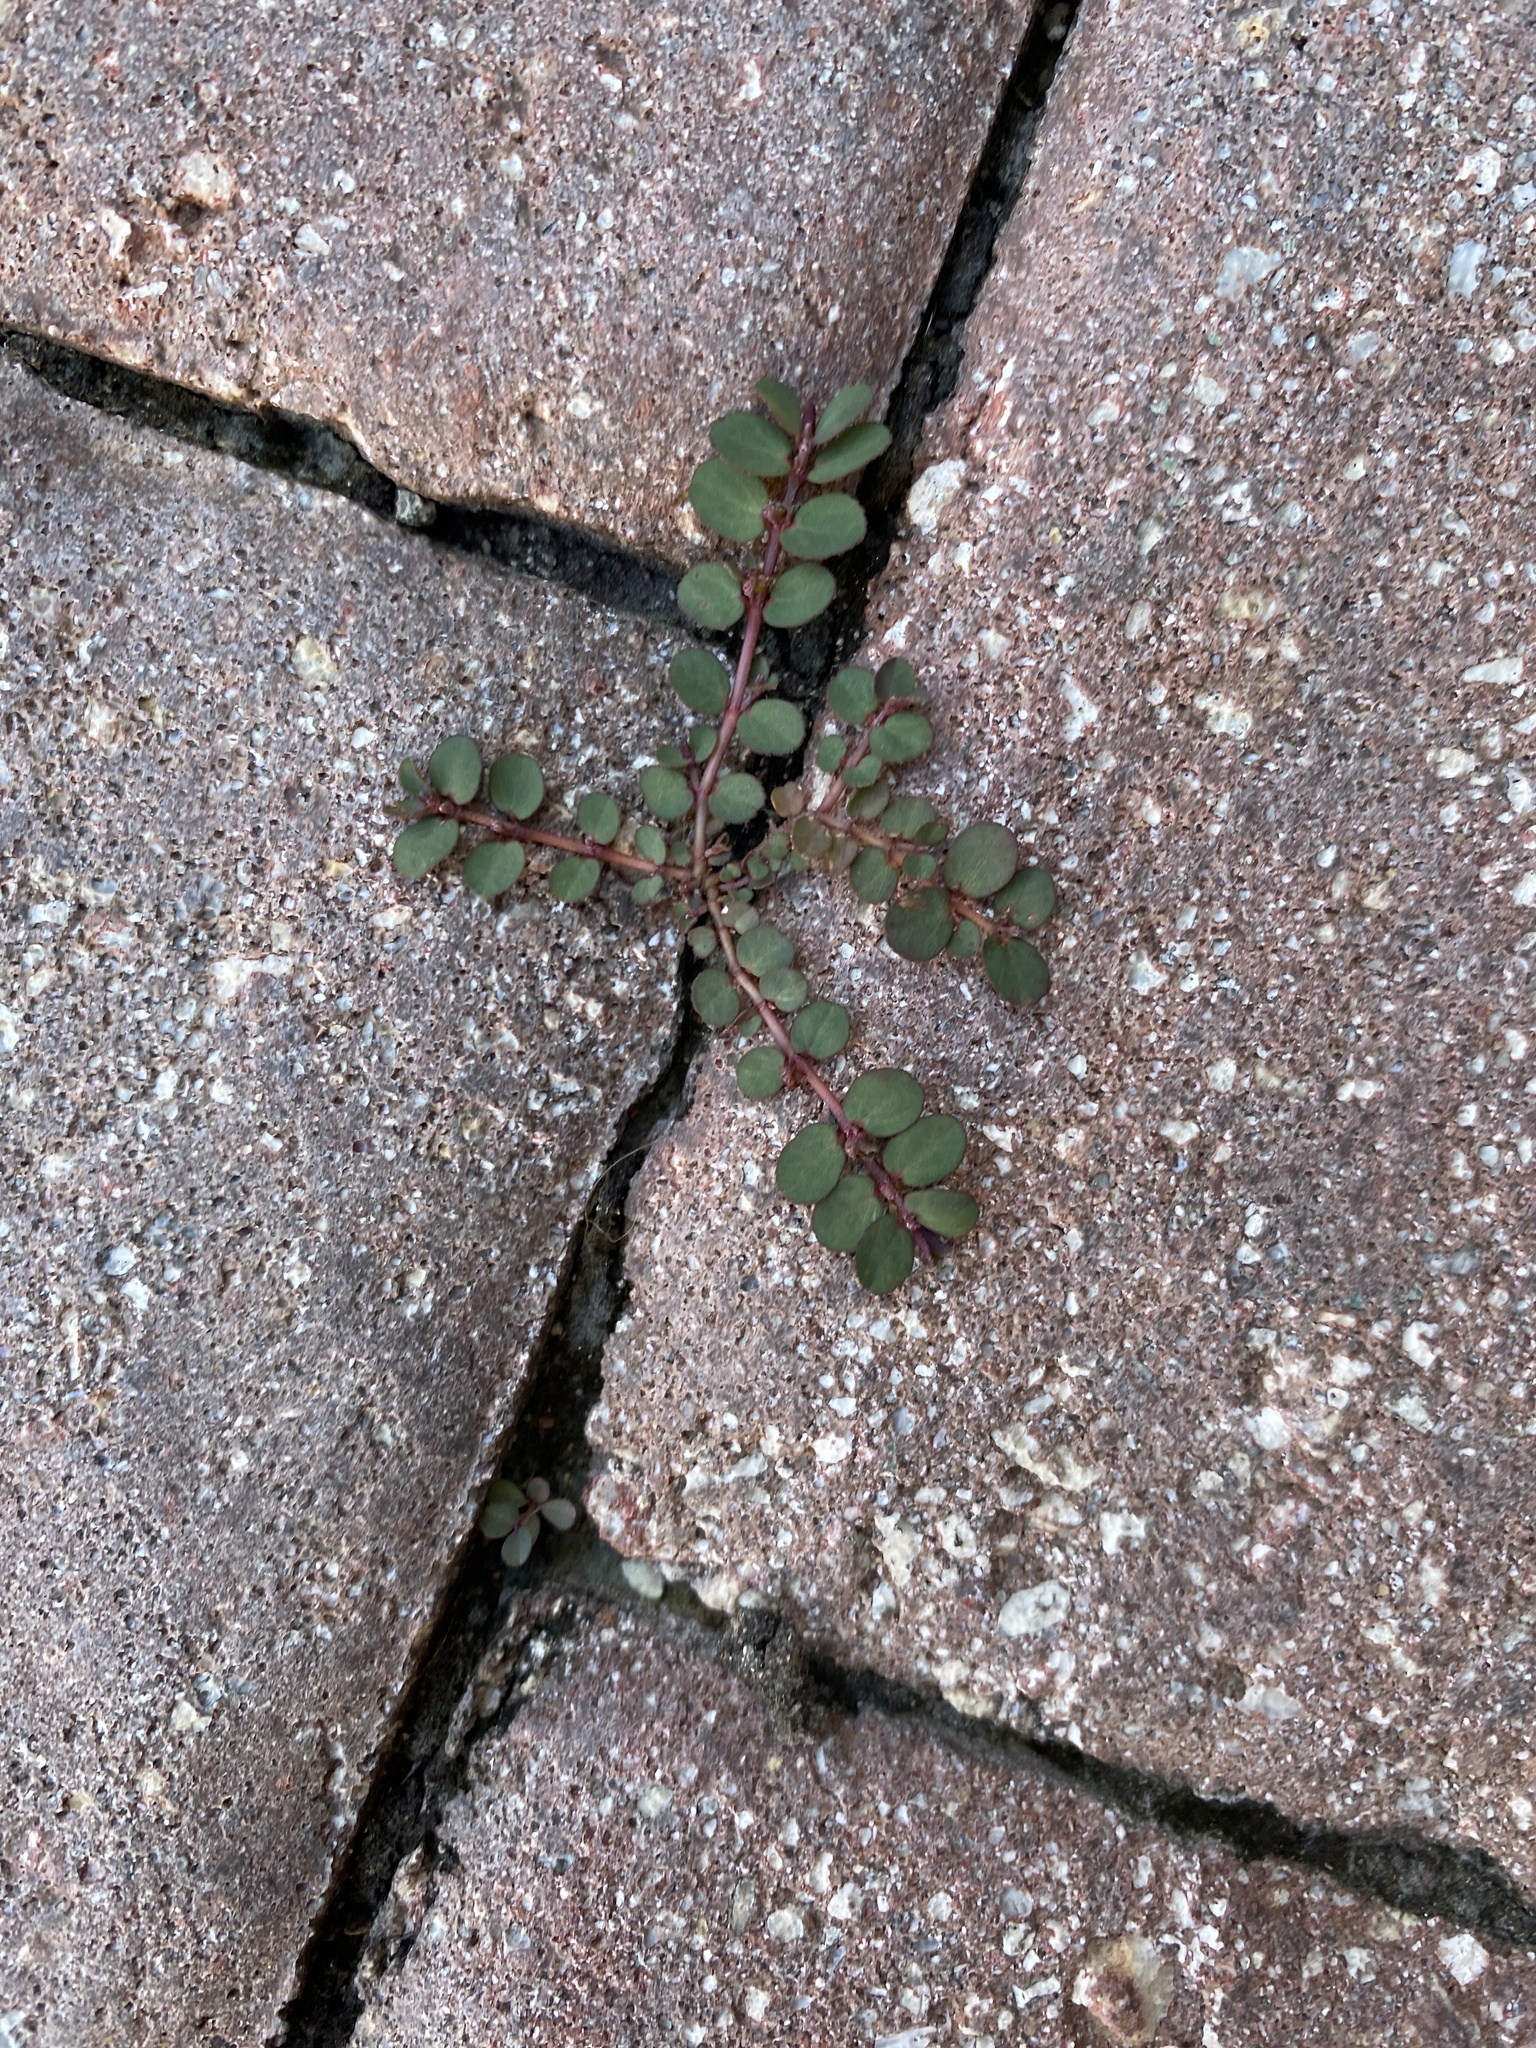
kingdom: Plantae
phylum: Tracheophyta
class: Magnoliopsida
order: Malpighiales
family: Euphorbiaceae
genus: Euphorbia
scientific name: Euphorbia prostrata
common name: Prostrate sandmat
